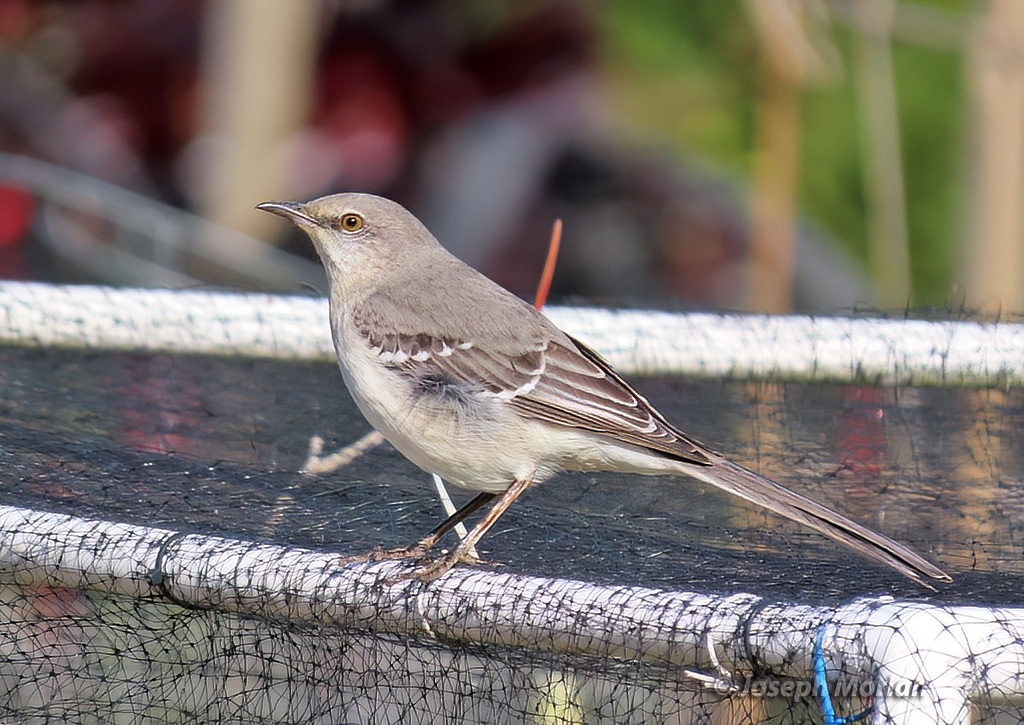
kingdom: Animalia
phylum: Chordata
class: Aves
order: Passeriformes
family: Mimidae
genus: Mimus
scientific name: Mimus polyglottos
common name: Northern mockingbird
